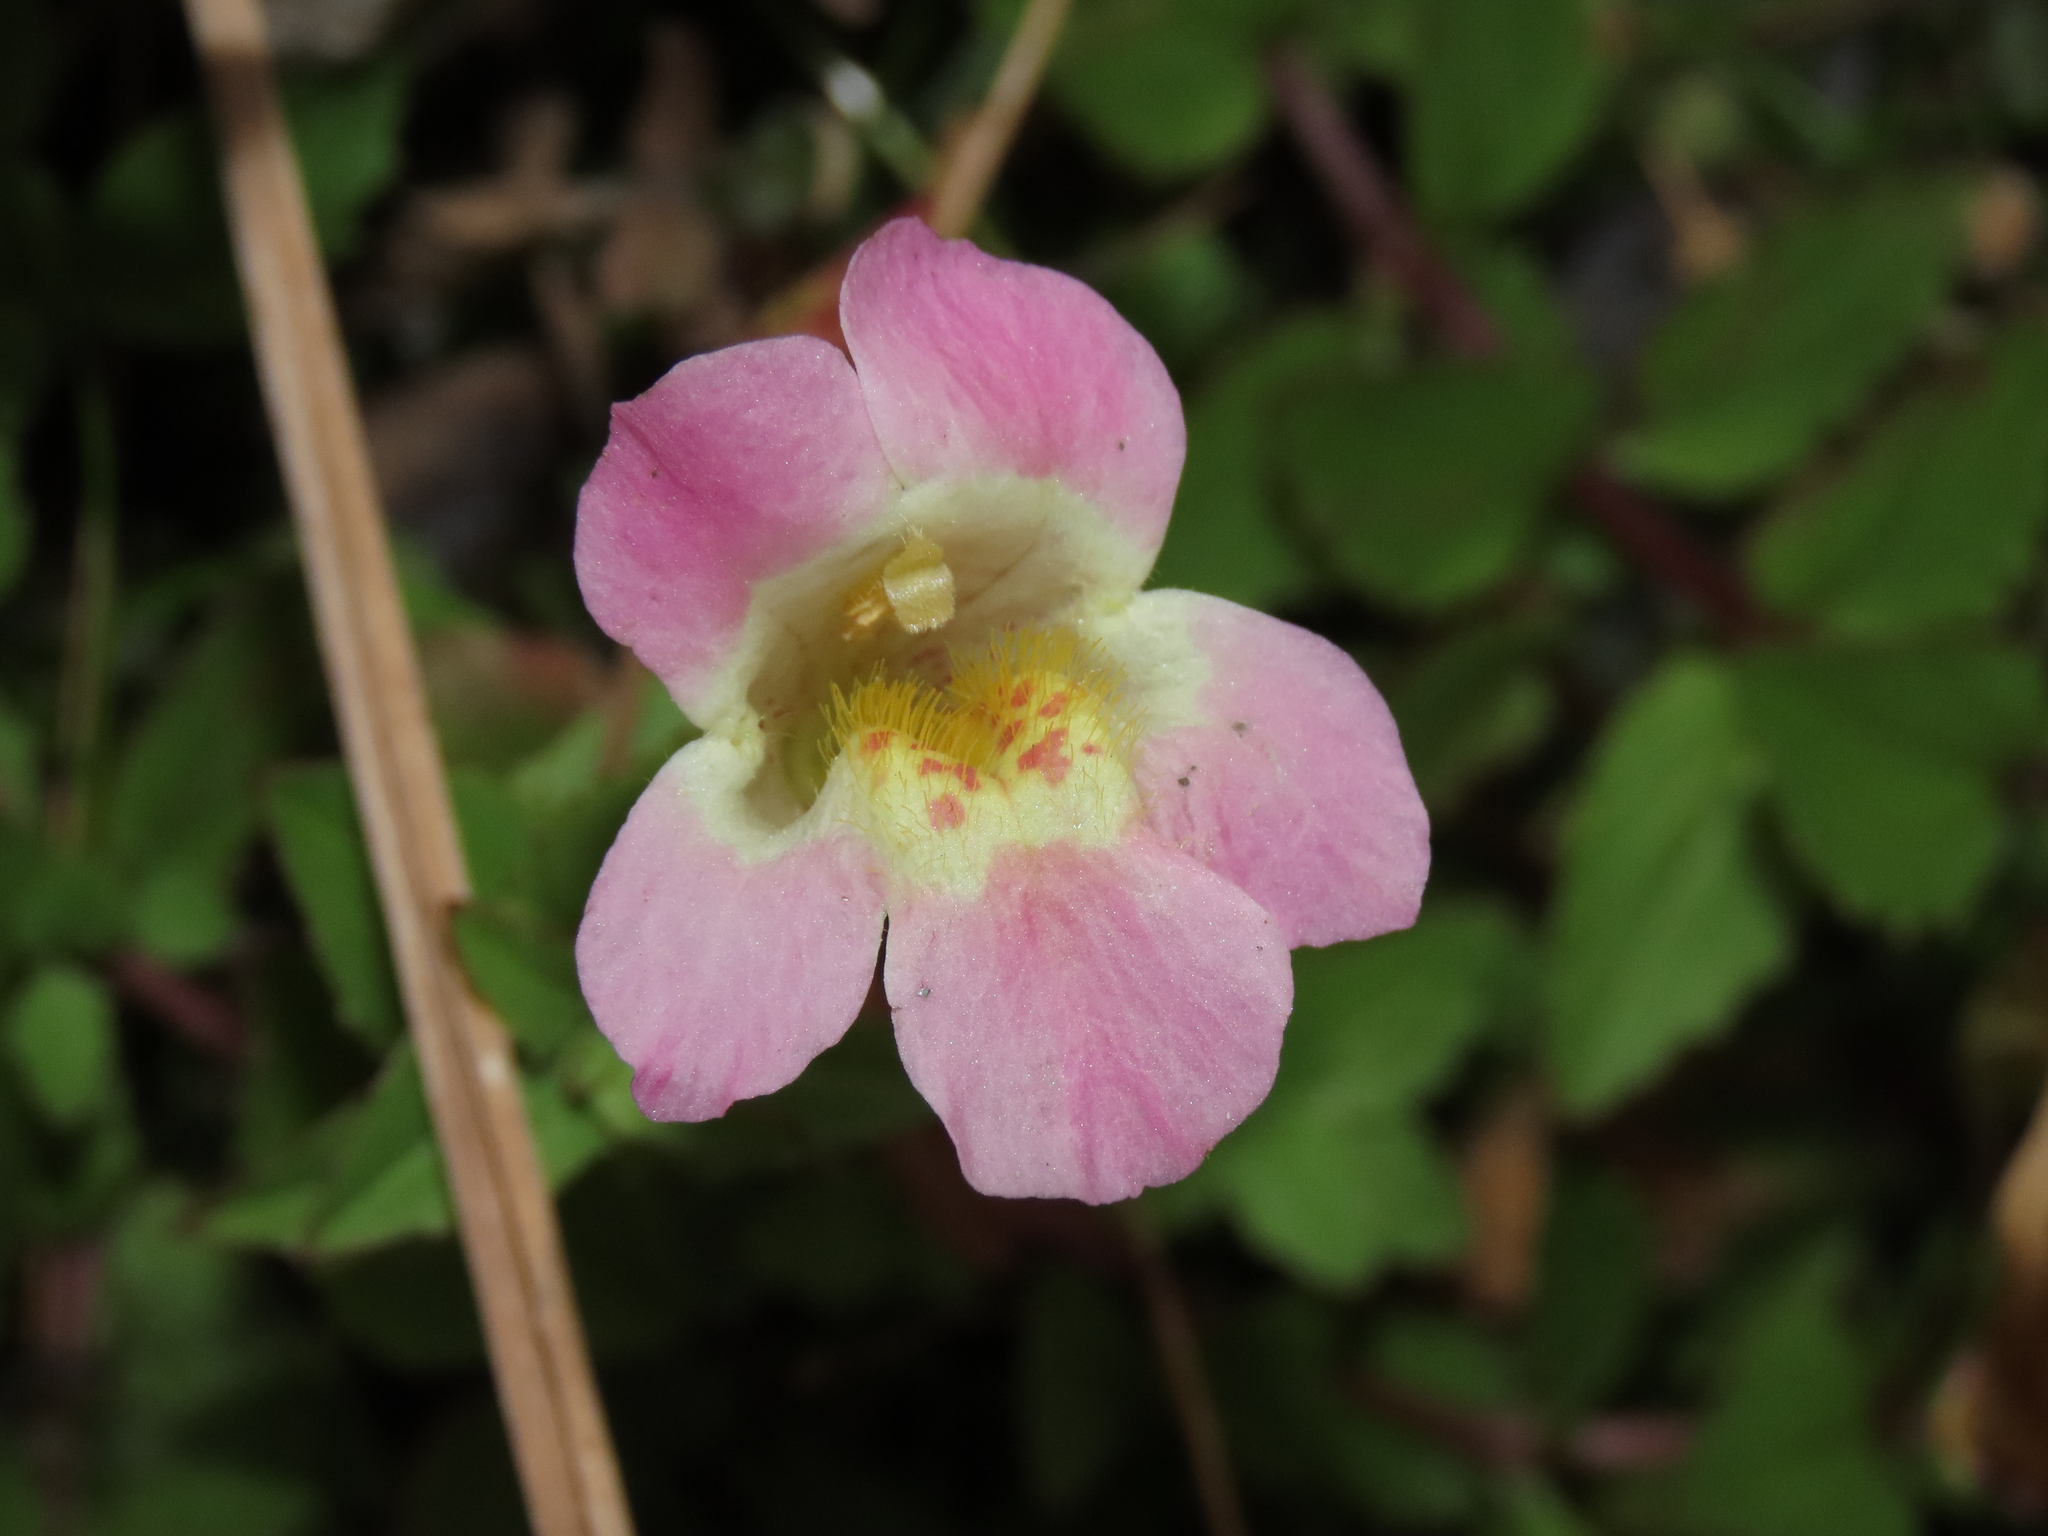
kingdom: Plantae
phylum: Tracheophyta
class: Magnoliopsida
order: Lamiales
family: Phrymaceae
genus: Erythranthe
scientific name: Erythranthe lutea
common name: Yellow monkey-flower
